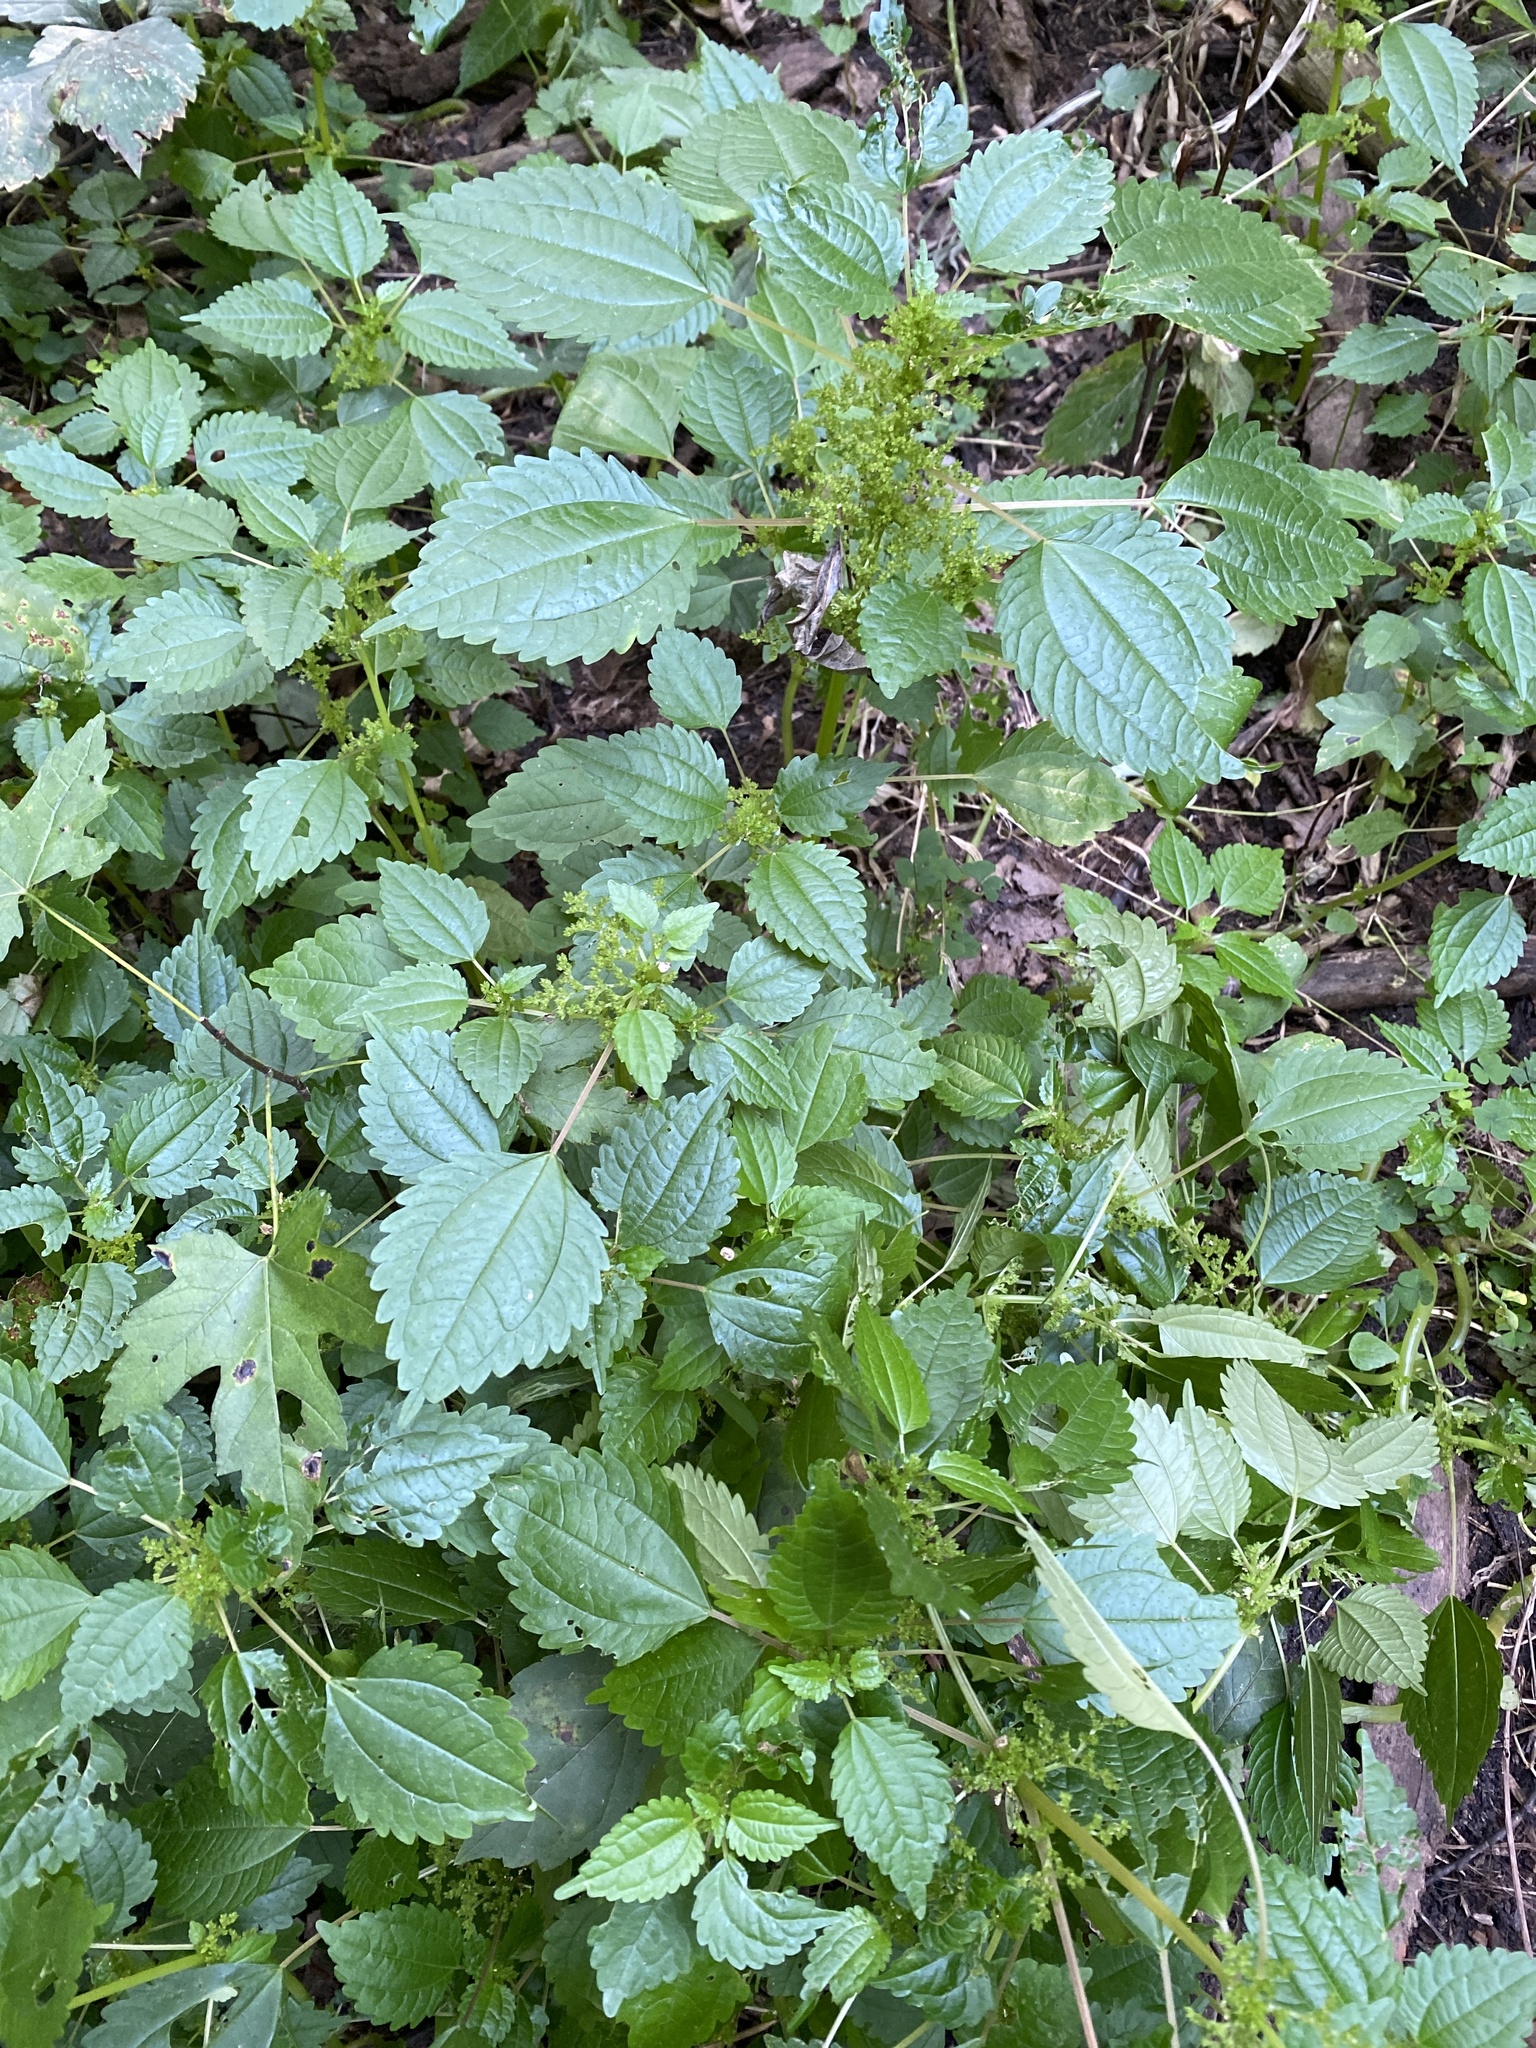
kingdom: Plantae
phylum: Tracheophyta
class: Magnoliopsida
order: Rosales
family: Urticaceae
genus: Pilea
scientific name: Pilea pumila
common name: Clearweed
